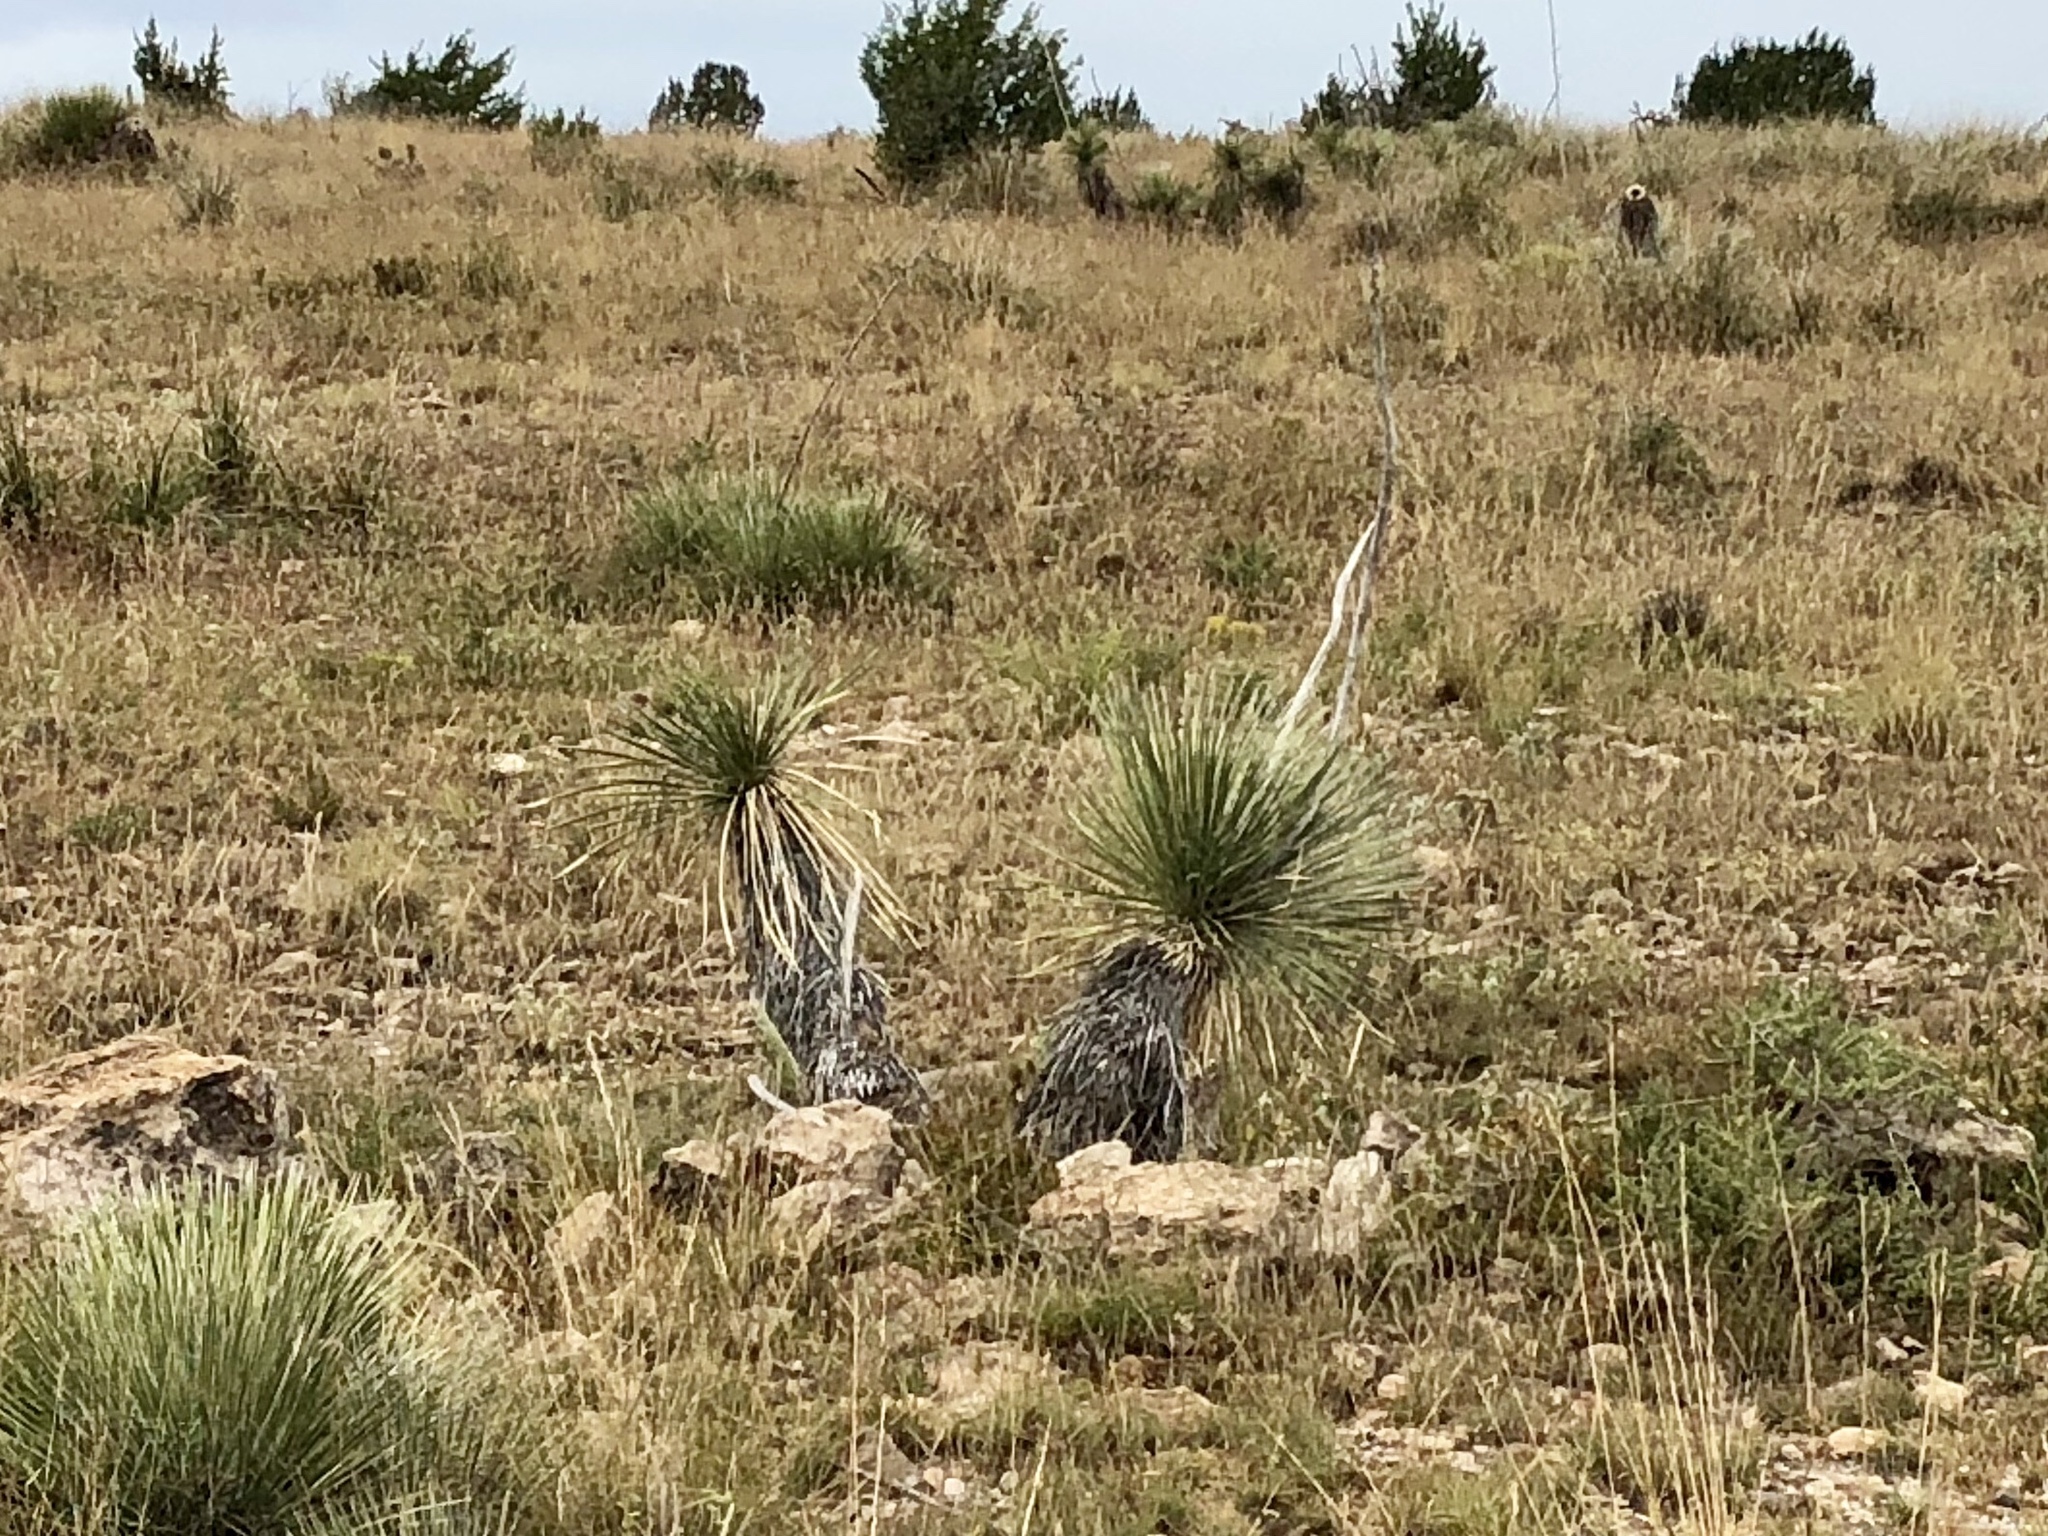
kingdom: Plantae
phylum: Tracheophyta
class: Liliopsida
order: Asparagales
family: Asparagaceae
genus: Yucca
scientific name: Yucca elata
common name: Palmella
